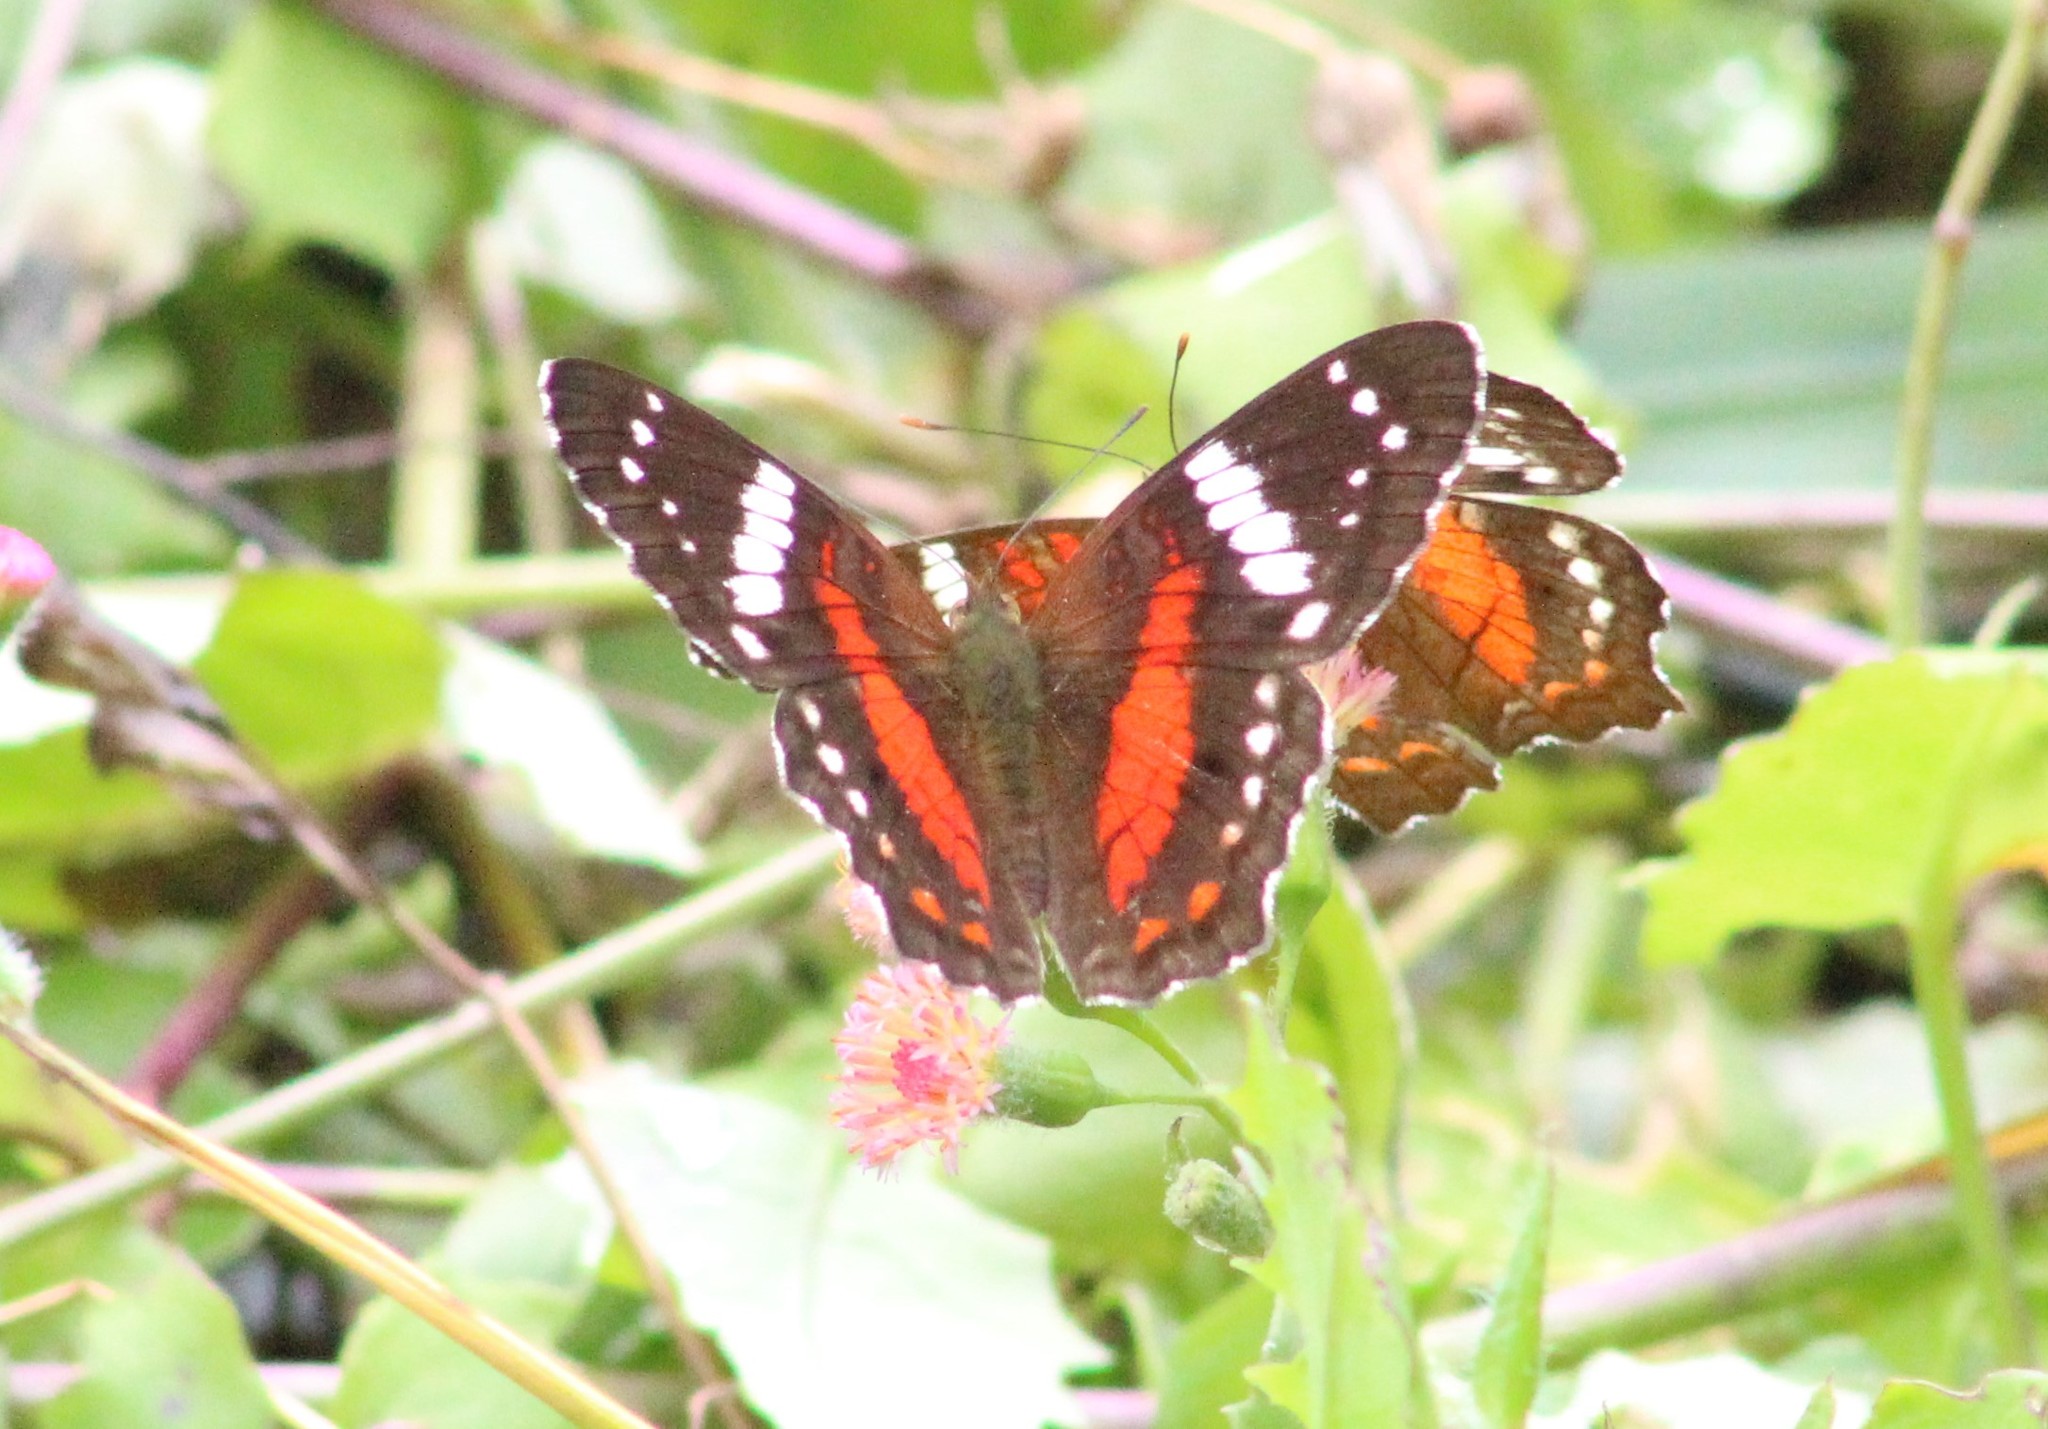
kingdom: Animalia
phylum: Arthropoda
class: Insecta
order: Lepidoptera
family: Nymphalidae
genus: Anartia
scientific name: Anartia amathea
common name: Red peacock
